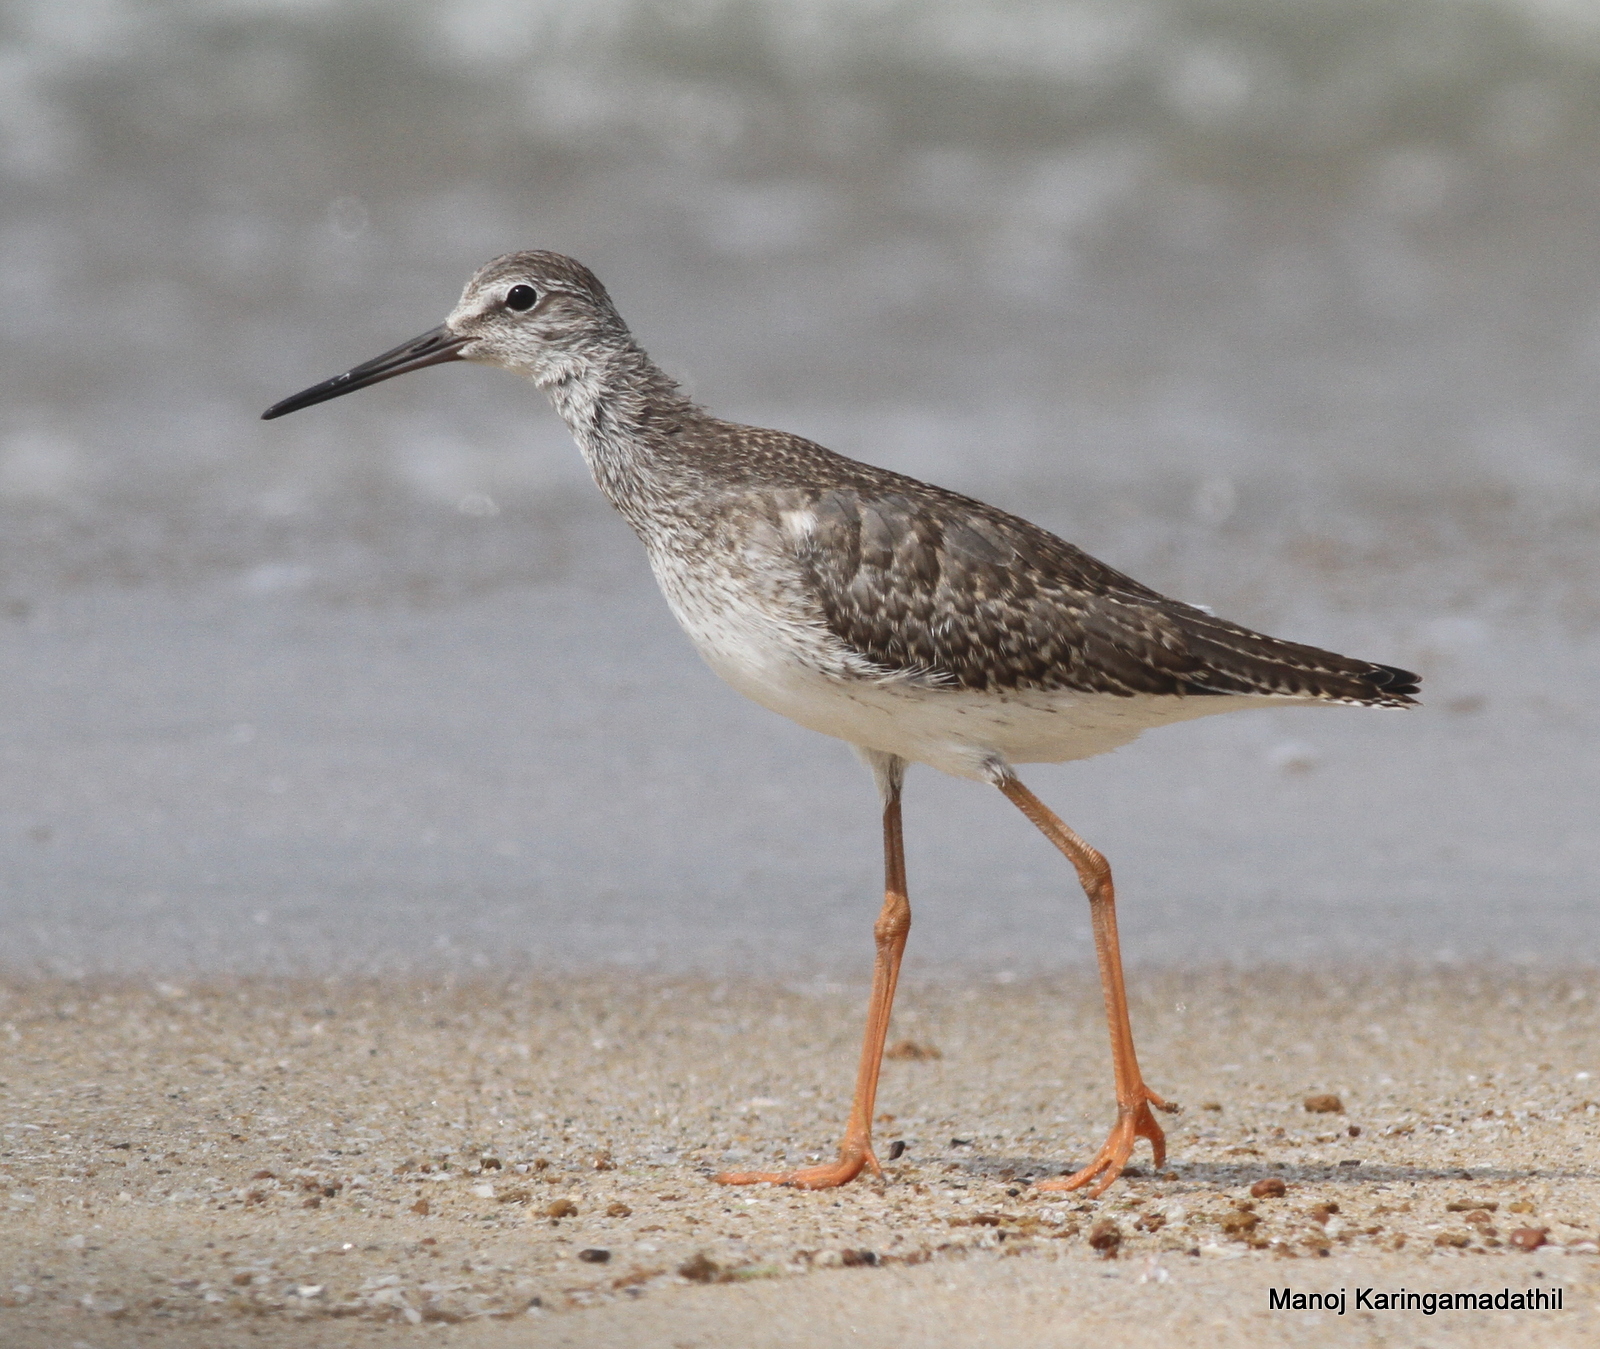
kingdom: Animalia
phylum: Chordata
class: Aves
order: Charadriiformes
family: Scolopacidae
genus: Tringa
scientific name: Tringa totanus
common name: Common redshank
